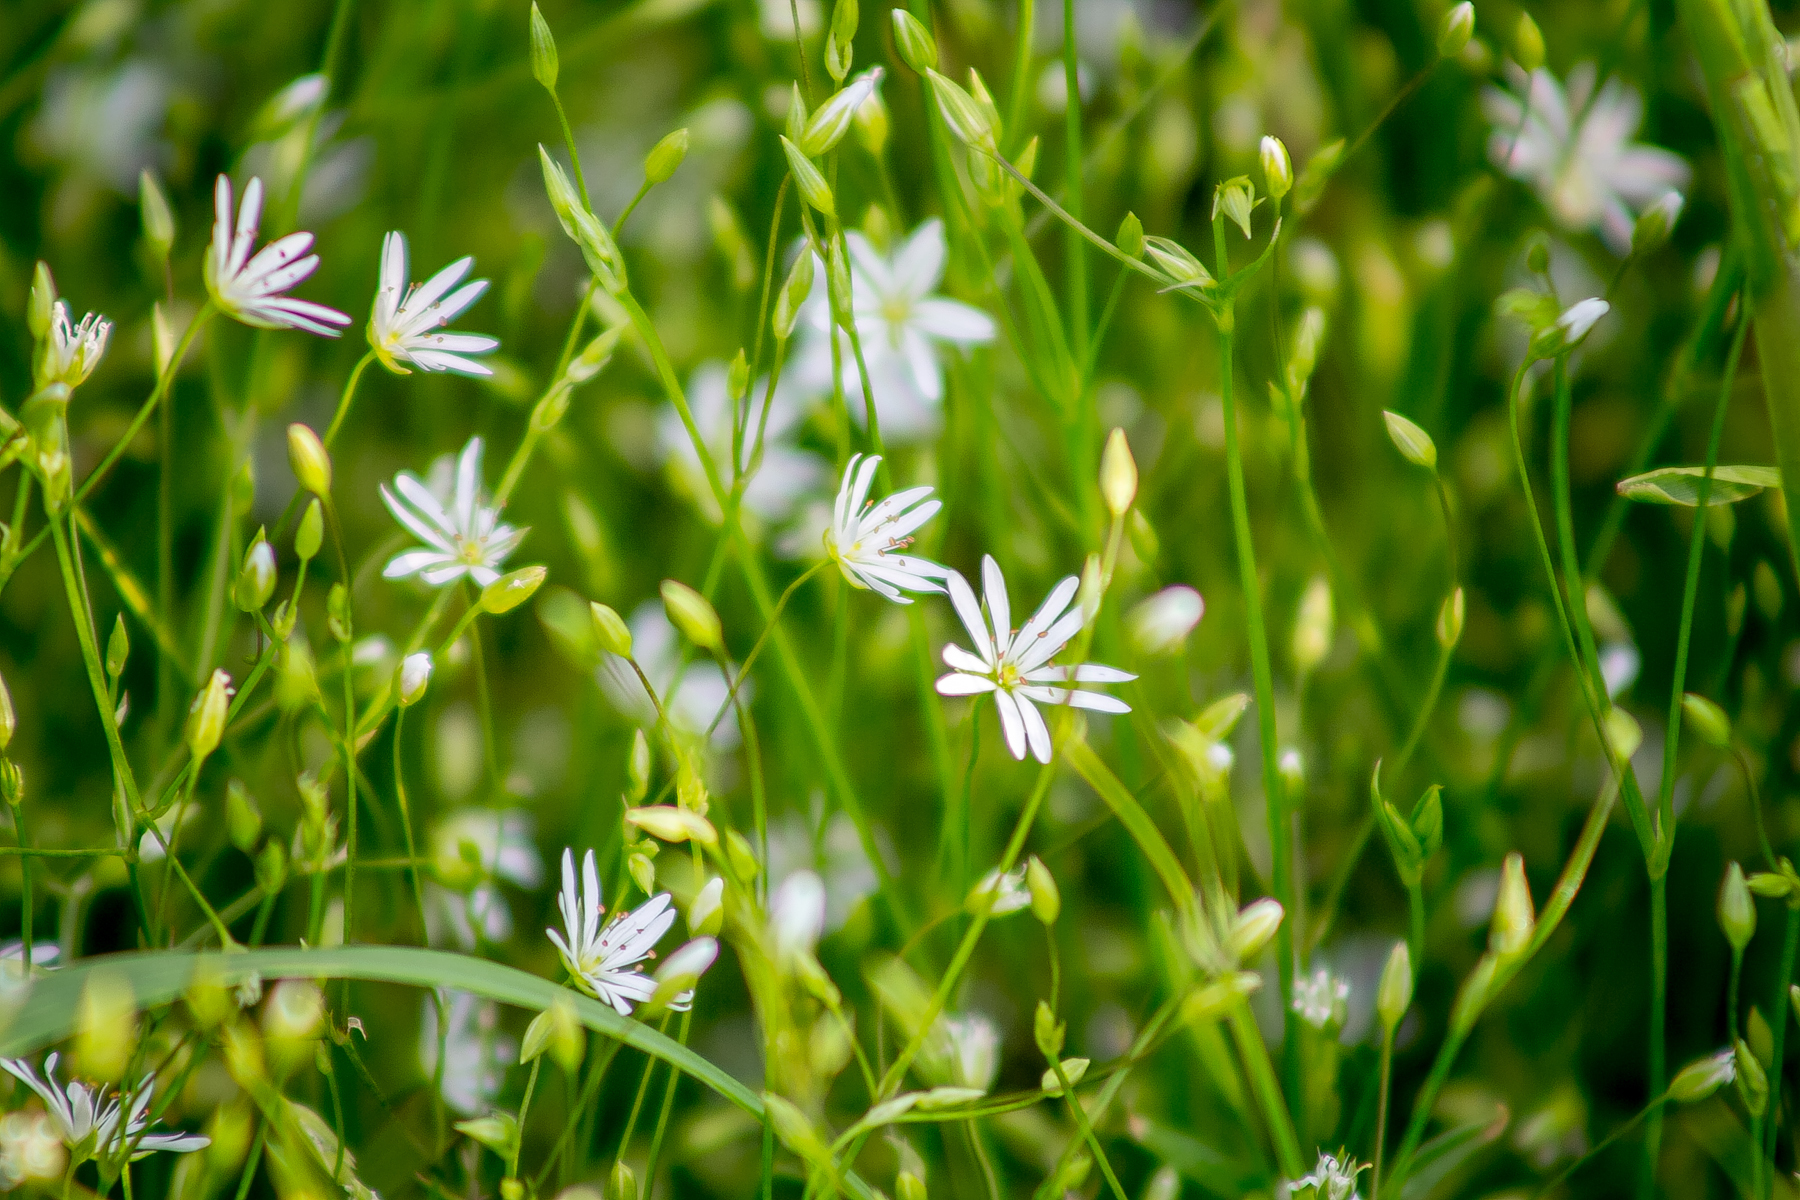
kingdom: Plantae
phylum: Tracheophyta
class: Magnoliopsida
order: Caryophyllales
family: Caryophyllaceae
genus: Stellaria
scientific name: Stellaria graminea
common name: Grass-like starwort
